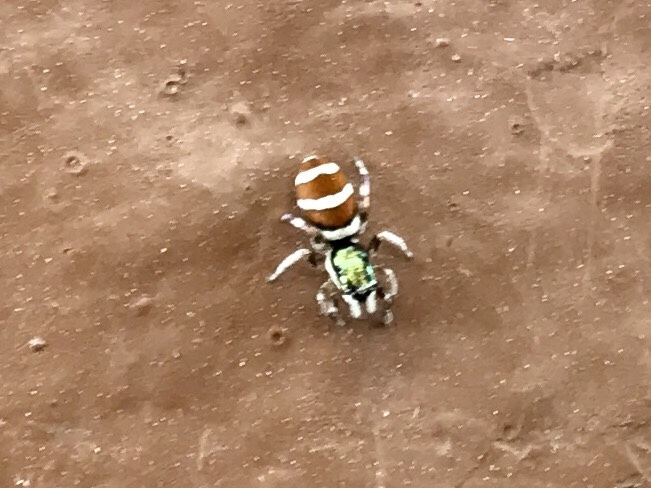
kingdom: Animalia
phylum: Arthropoda
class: Arachnida
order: Araneae
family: Salticidae
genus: Salticus
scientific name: Salticus palpalis
